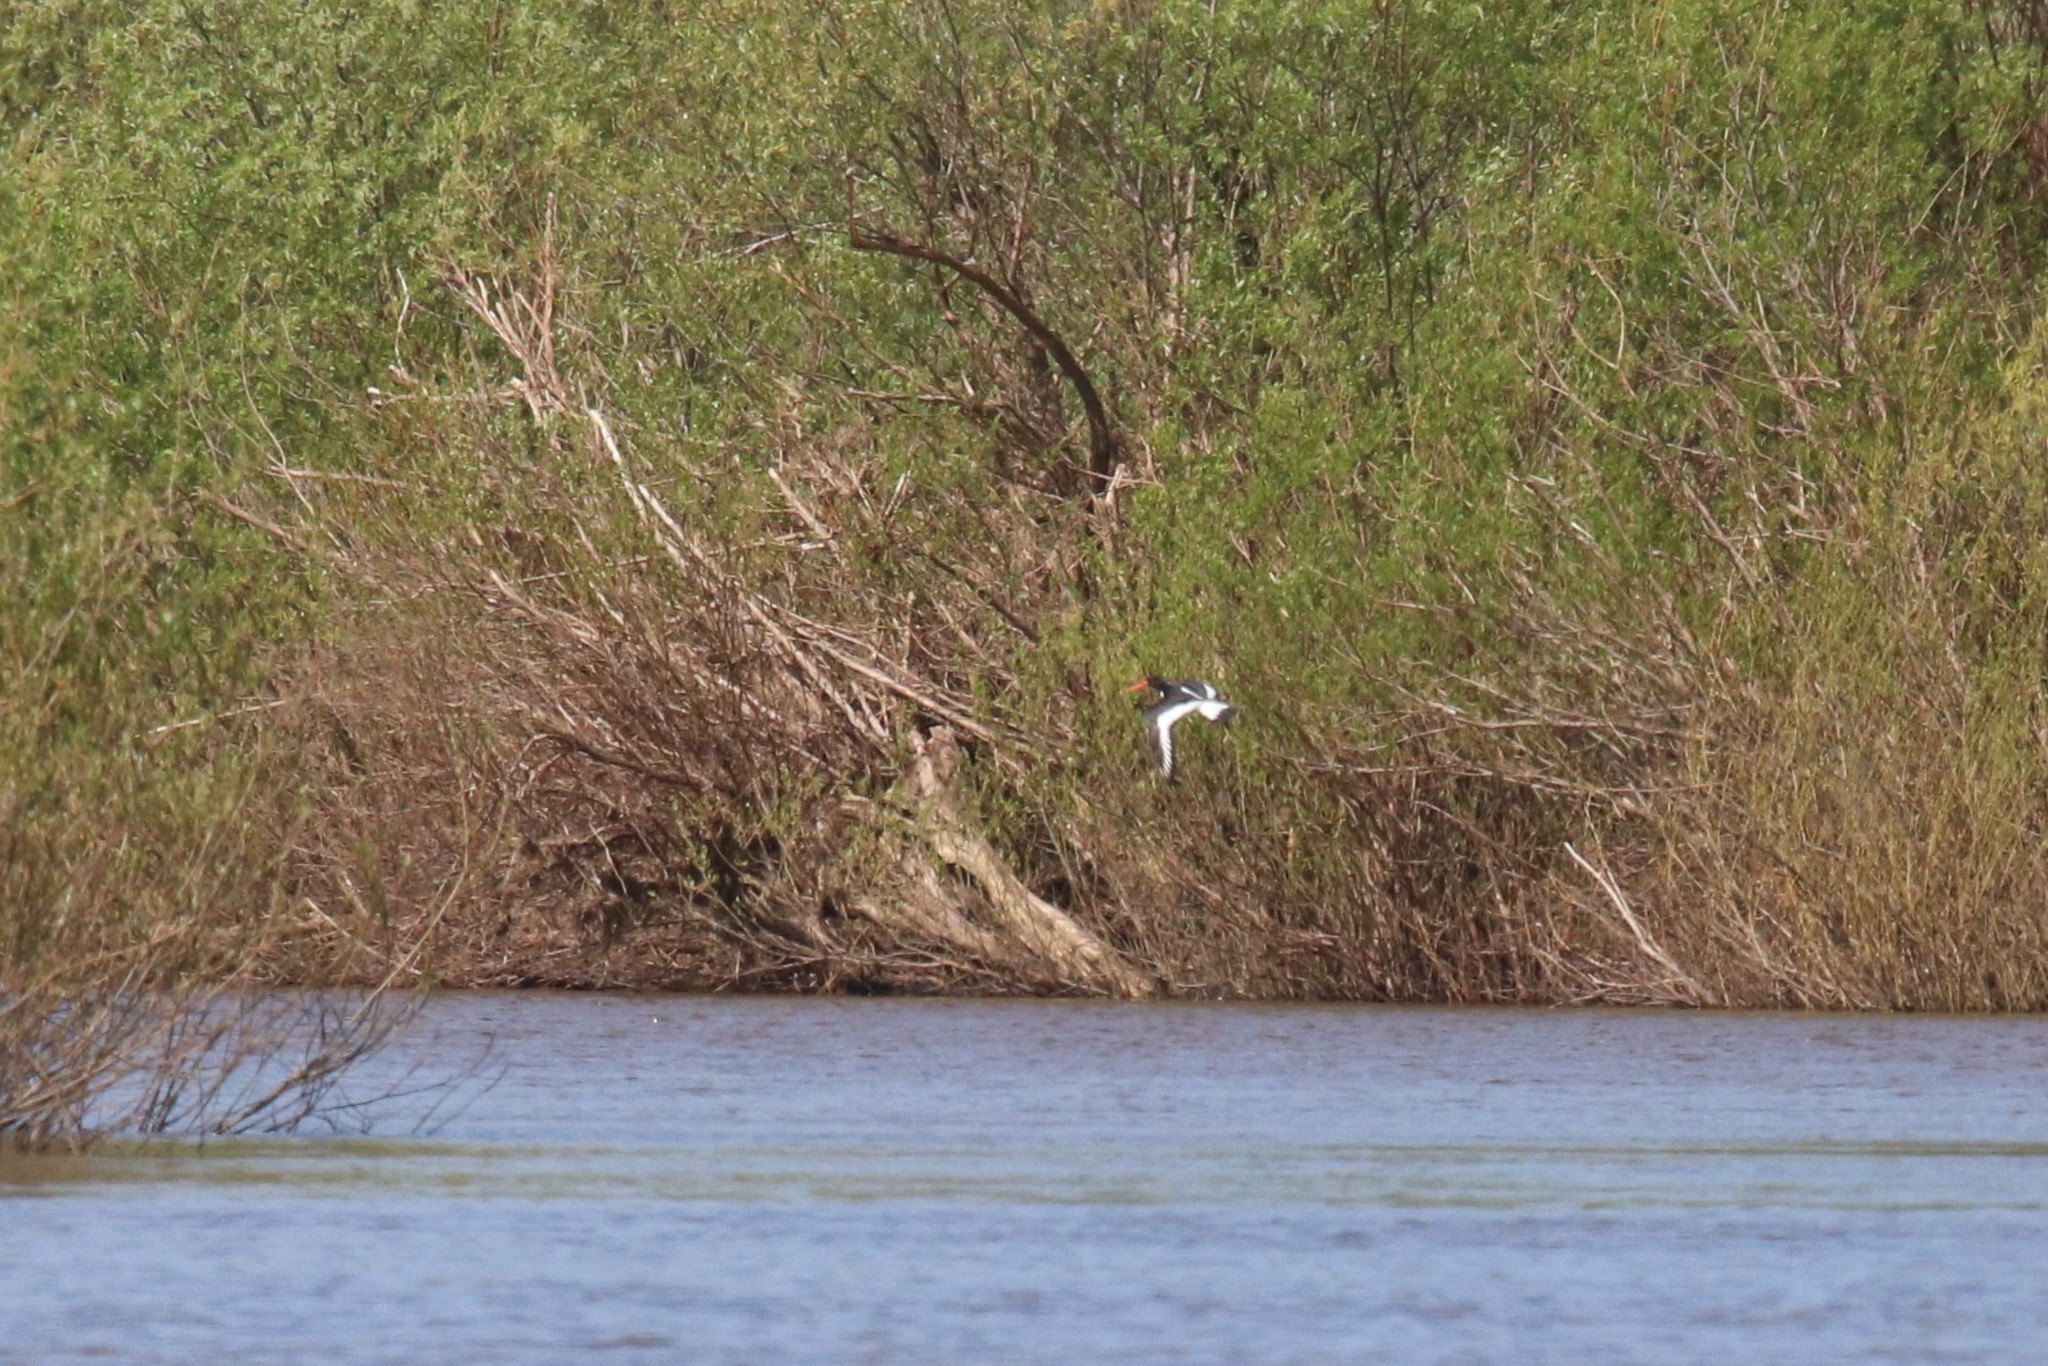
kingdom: Animalia
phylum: Chordata
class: Aves
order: Charadriiformes
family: Haematopodidae
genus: Haematopus
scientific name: Haematopus ostralegus
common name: Eurasian oystercatcher
